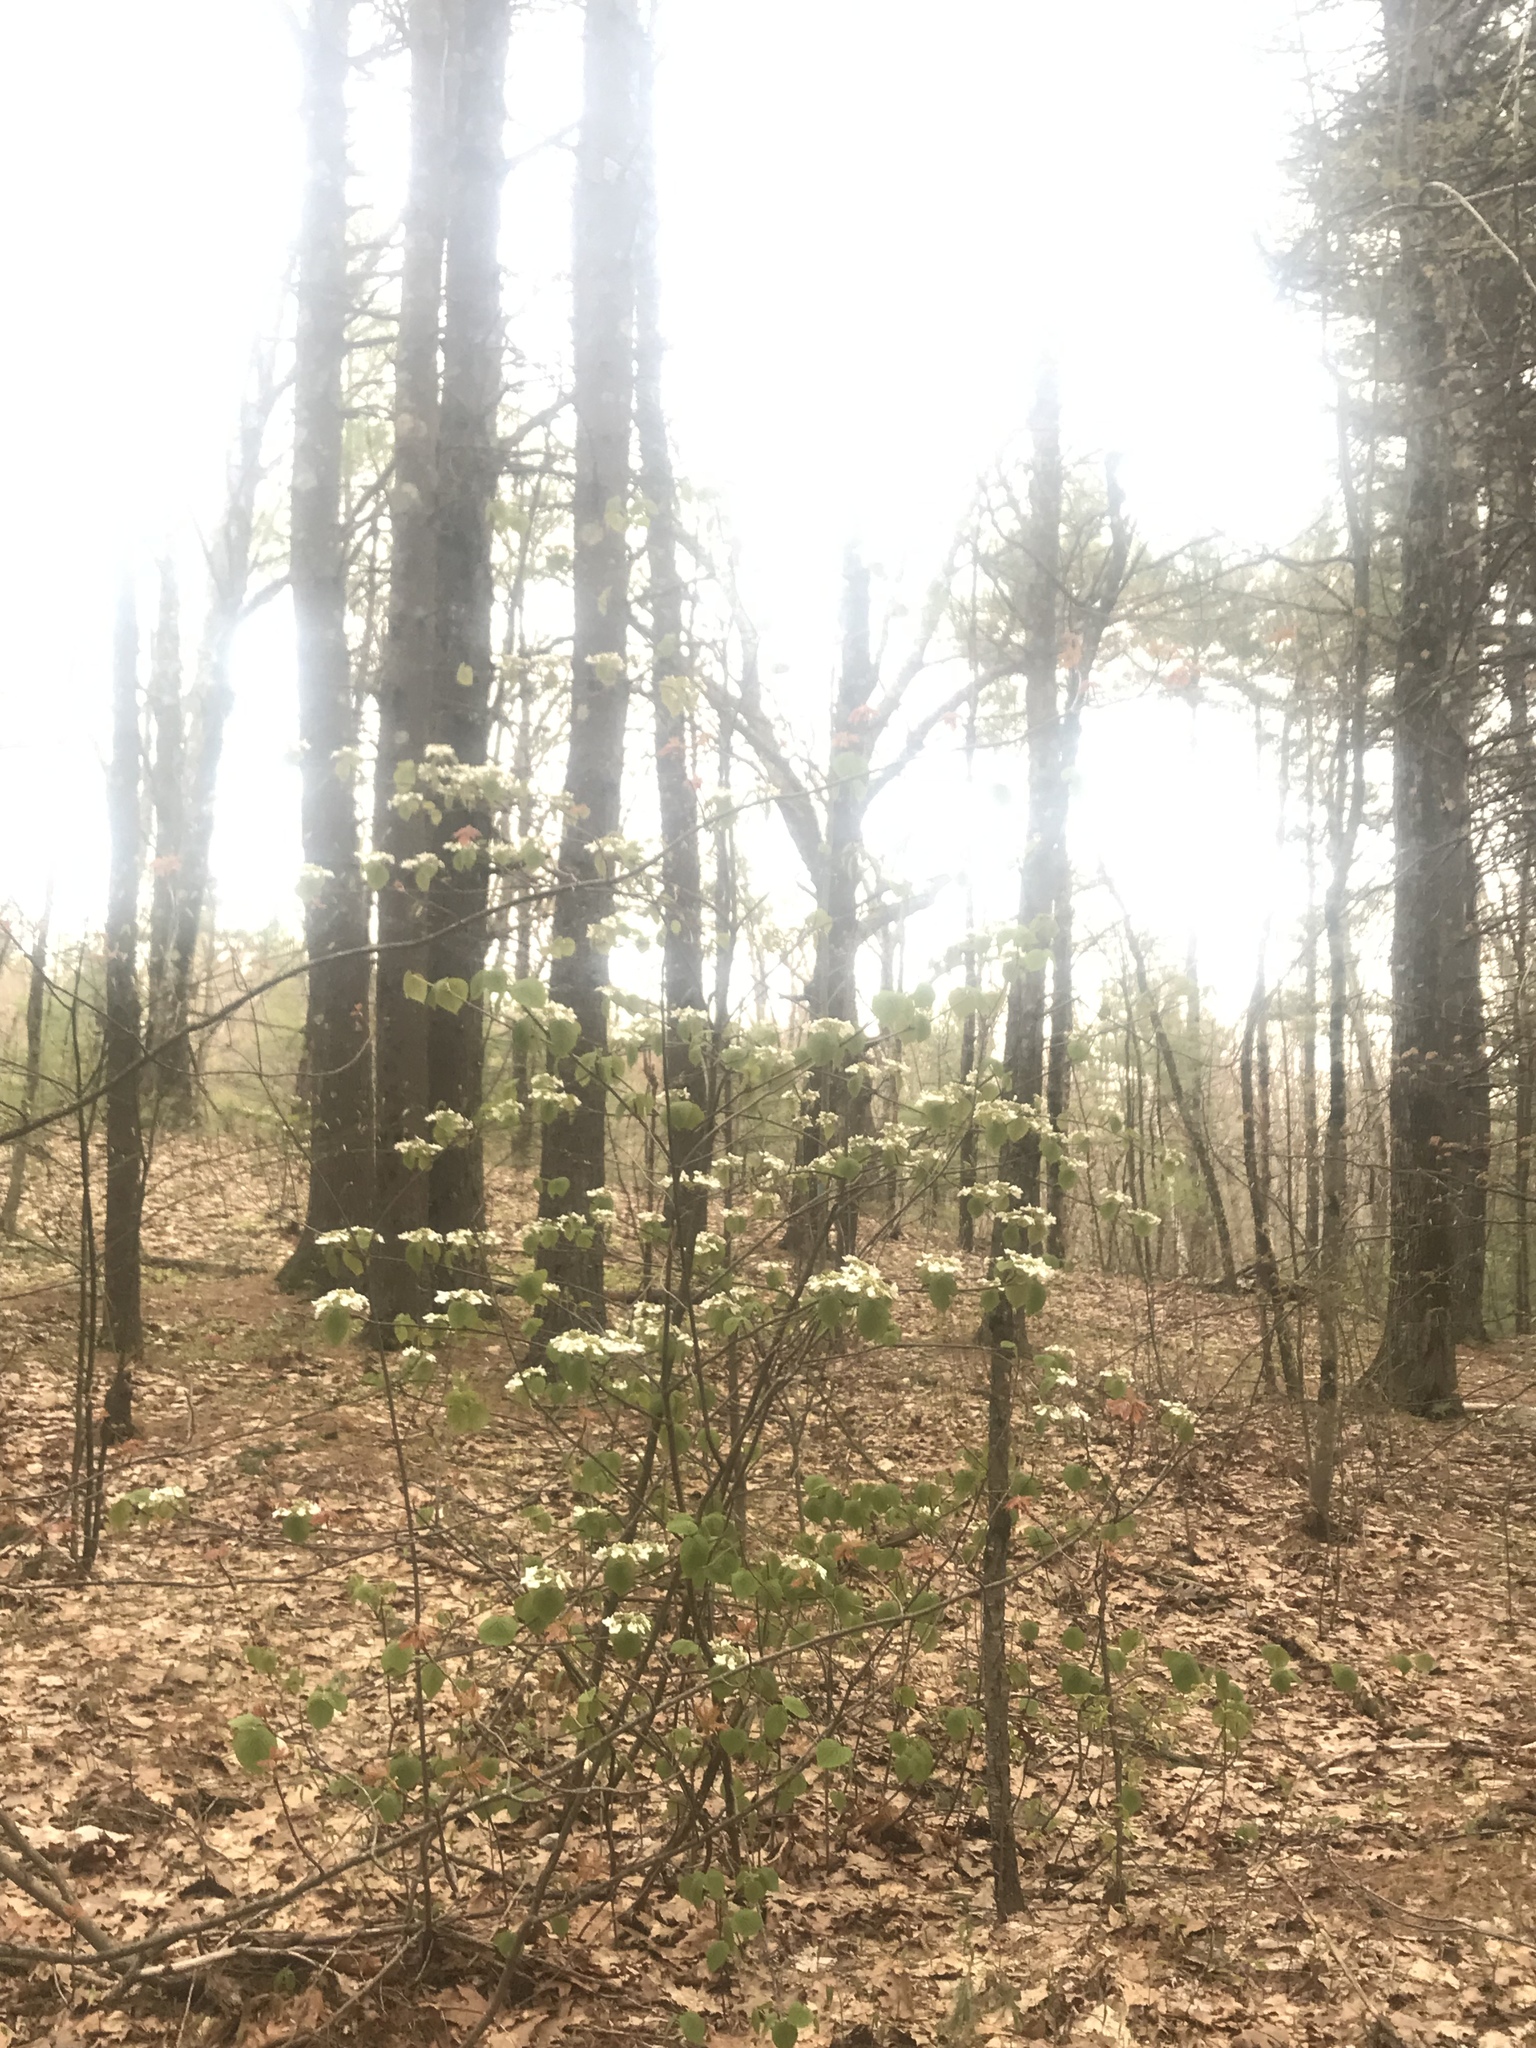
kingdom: Plantae
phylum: Tracheophyta
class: Magnoliopsida
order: Dipsacales
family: Viburnaceae
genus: Viburnum
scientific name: Viburnum lantanoides
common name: Hobblebush
